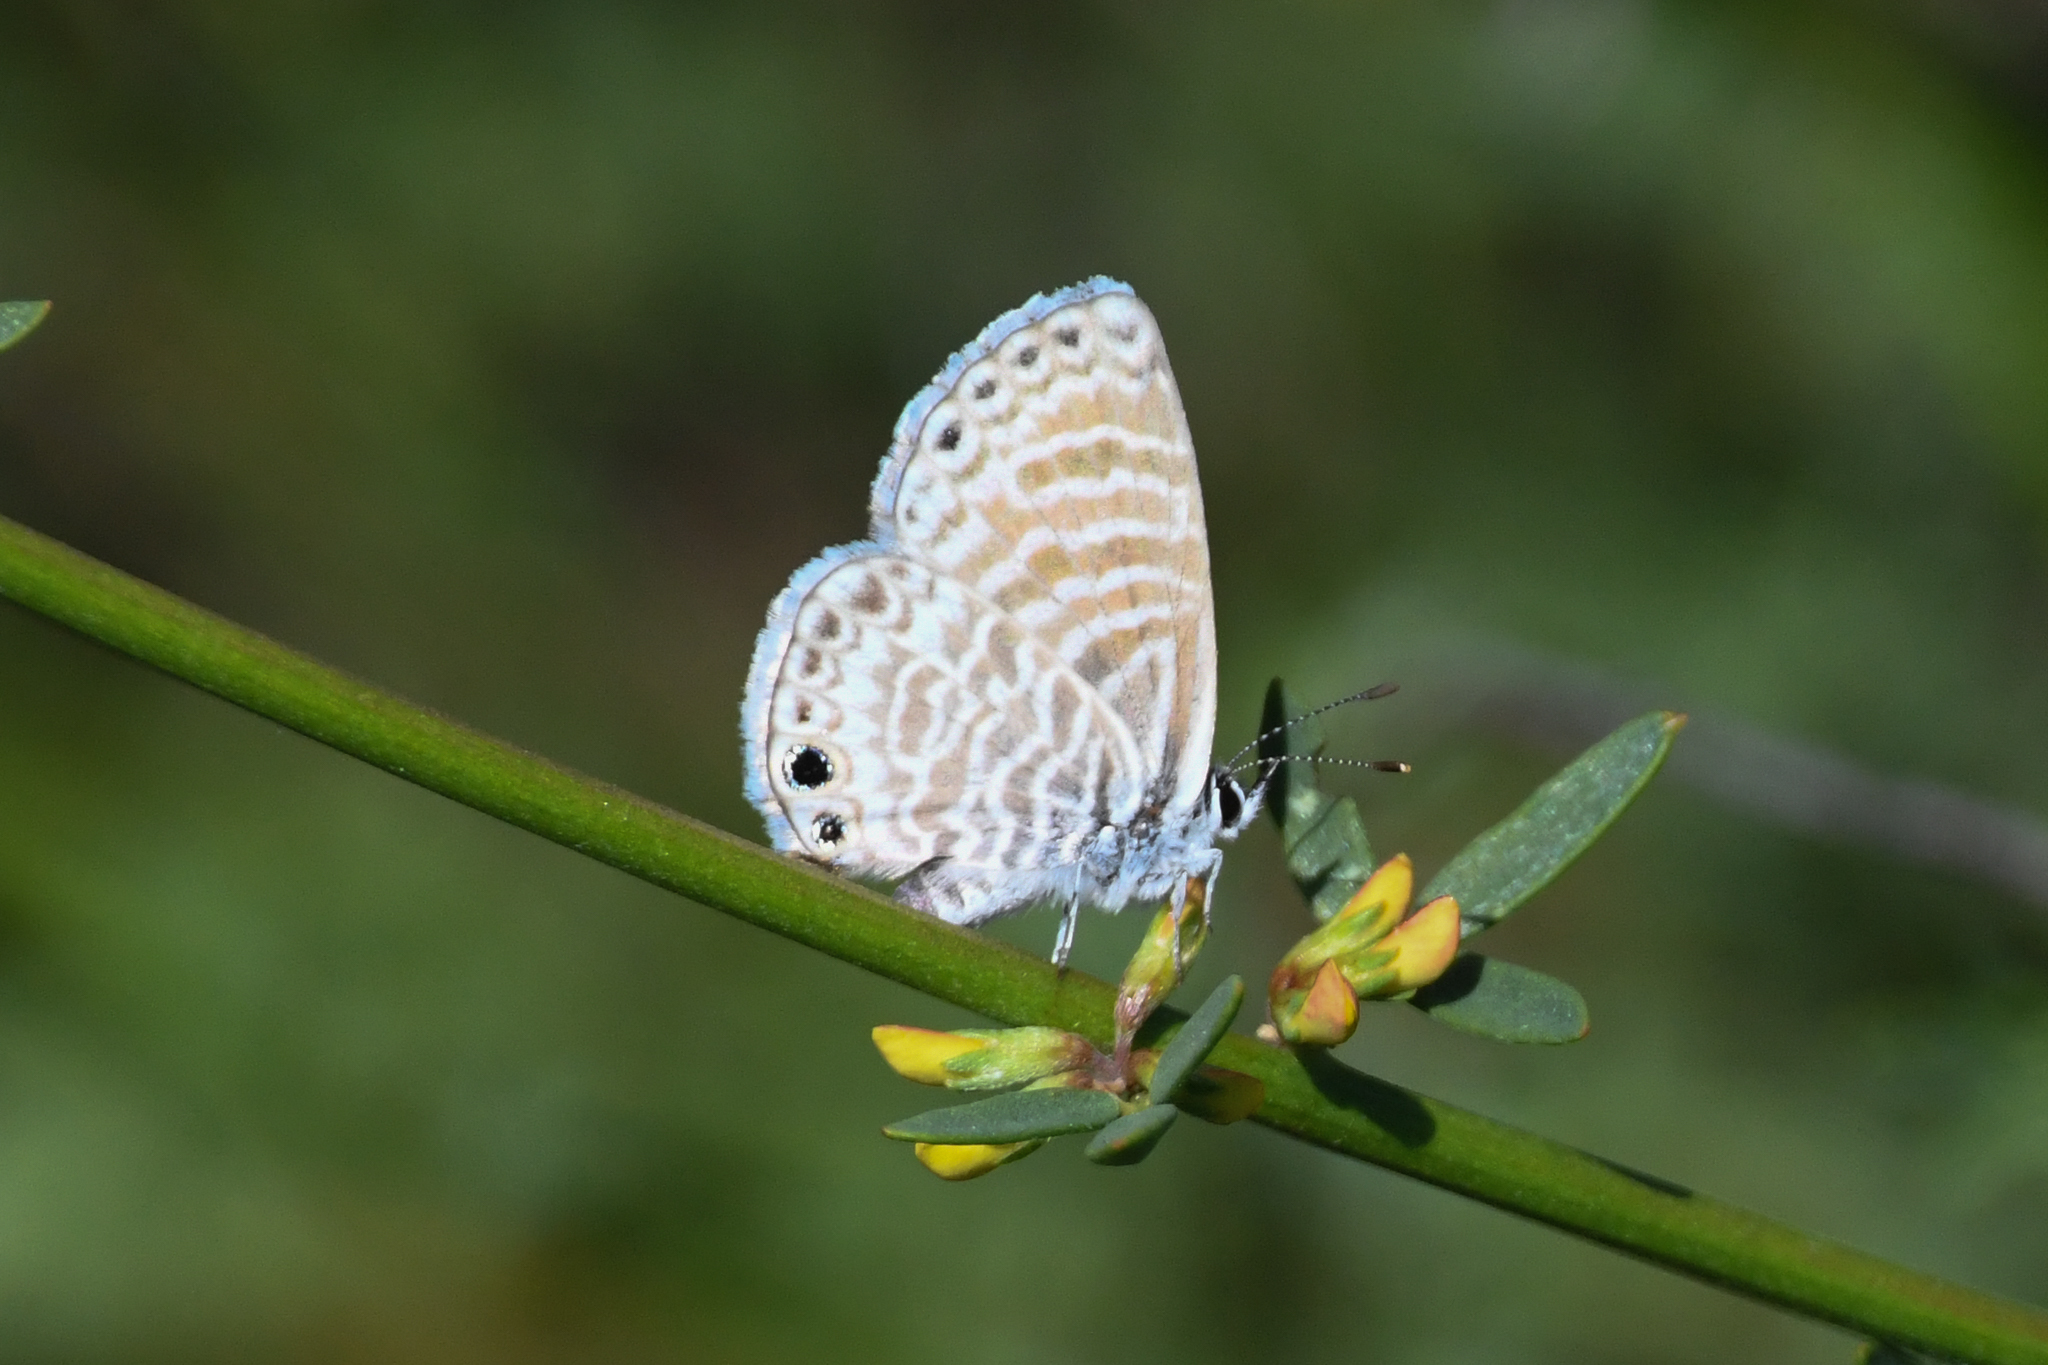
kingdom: Animalia
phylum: Arthropoda
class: Insecta
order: Lepidoptera
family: Lycaenidae
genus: Leptotes
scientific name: Leptotes marina
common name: Marine blue
